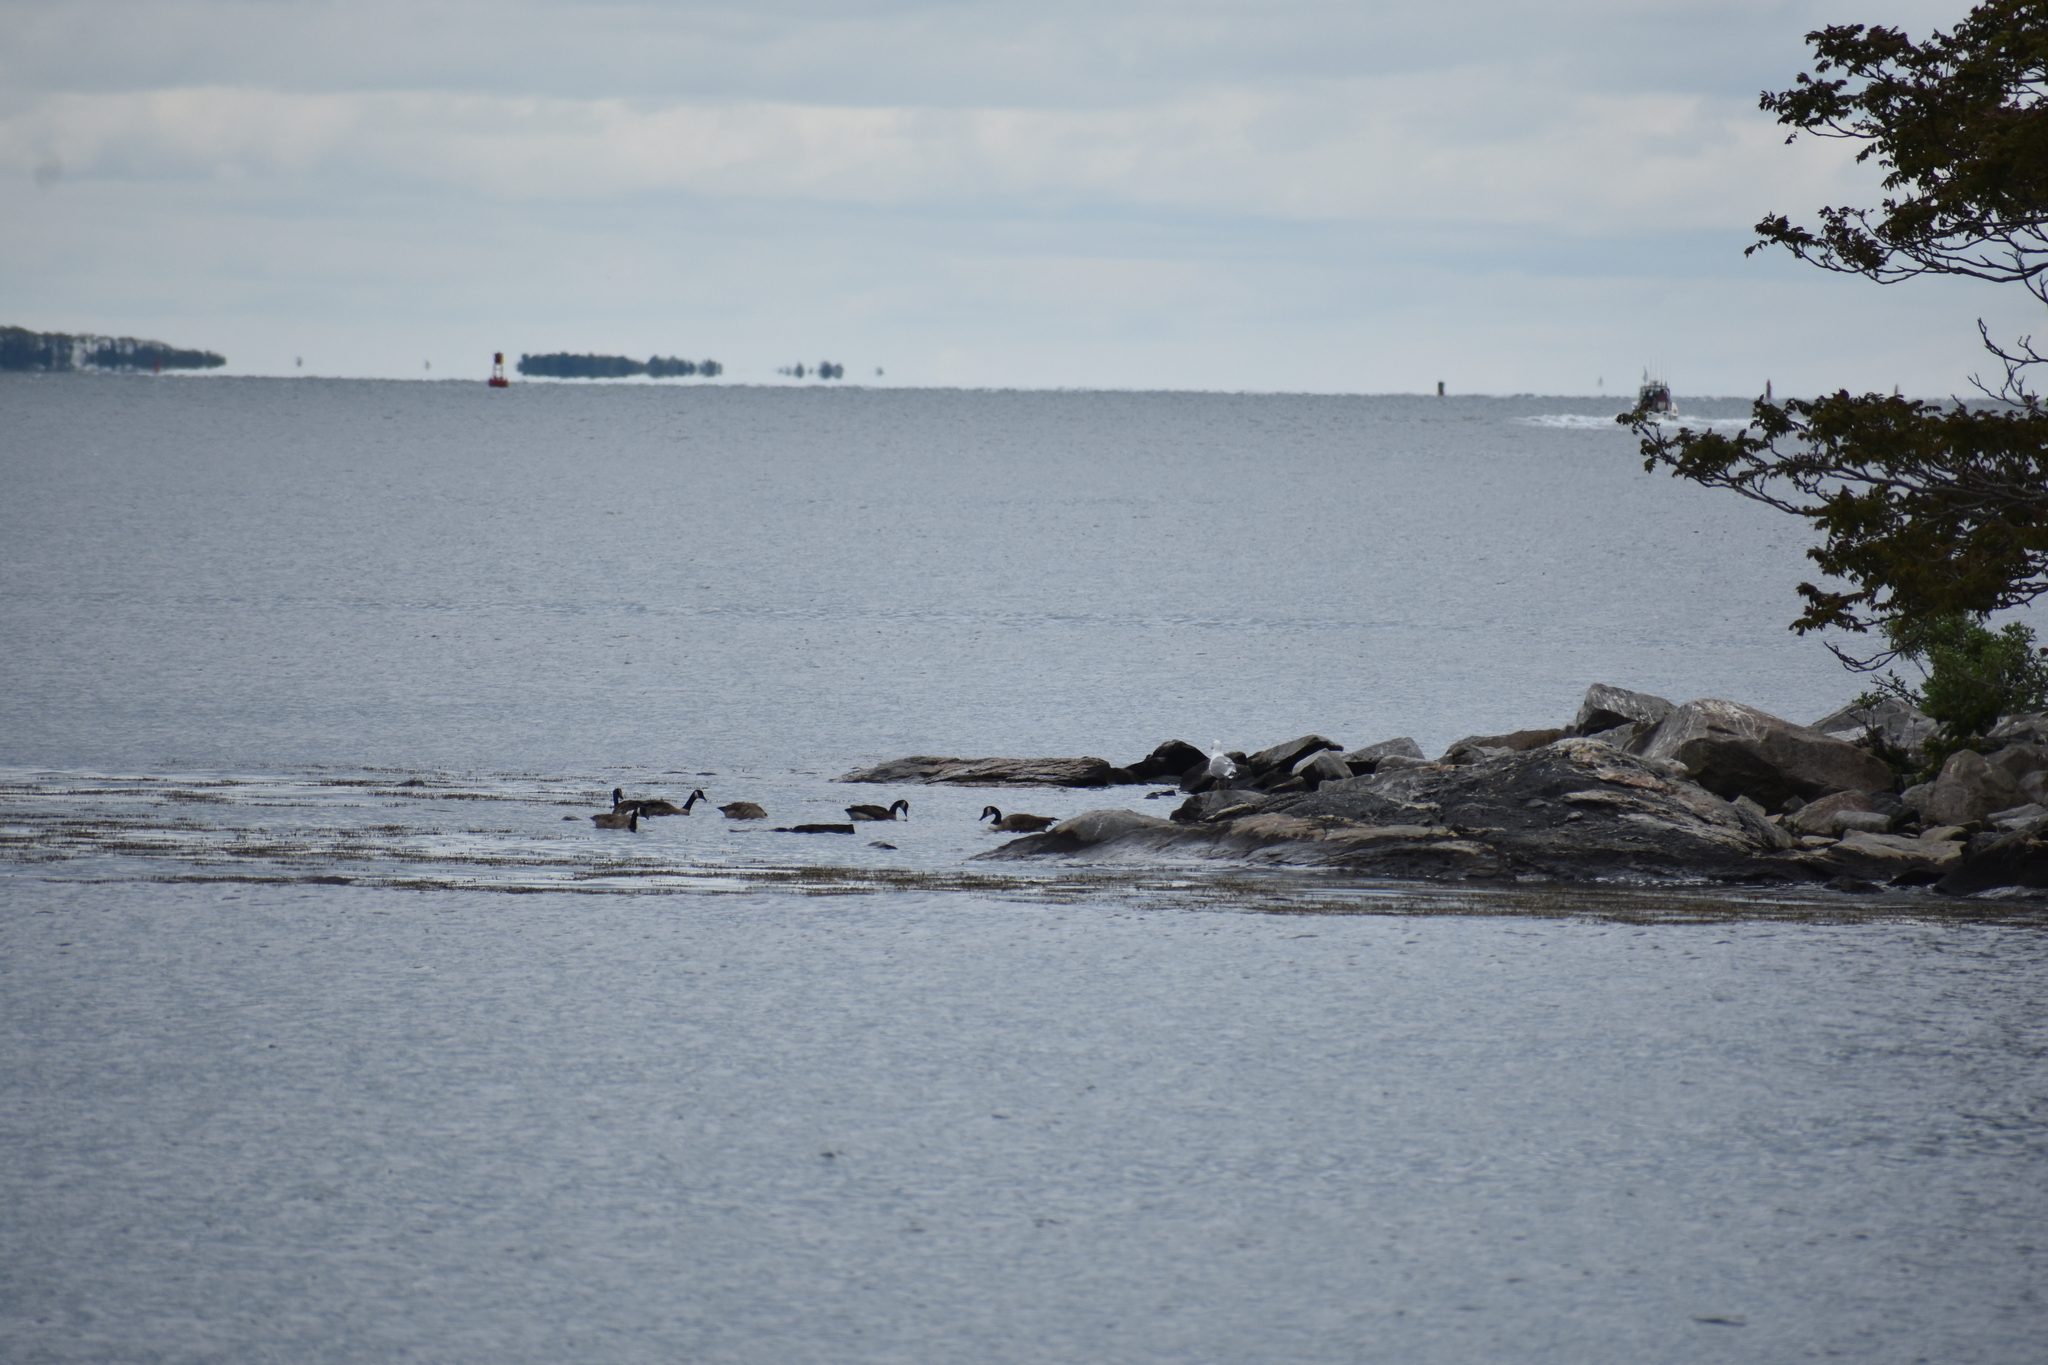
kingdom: Animalia
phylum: Chordata
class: Aves
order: Anseriformes
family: Anatidae
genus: Branta
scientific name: Branta canadensis
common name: Canada goose
